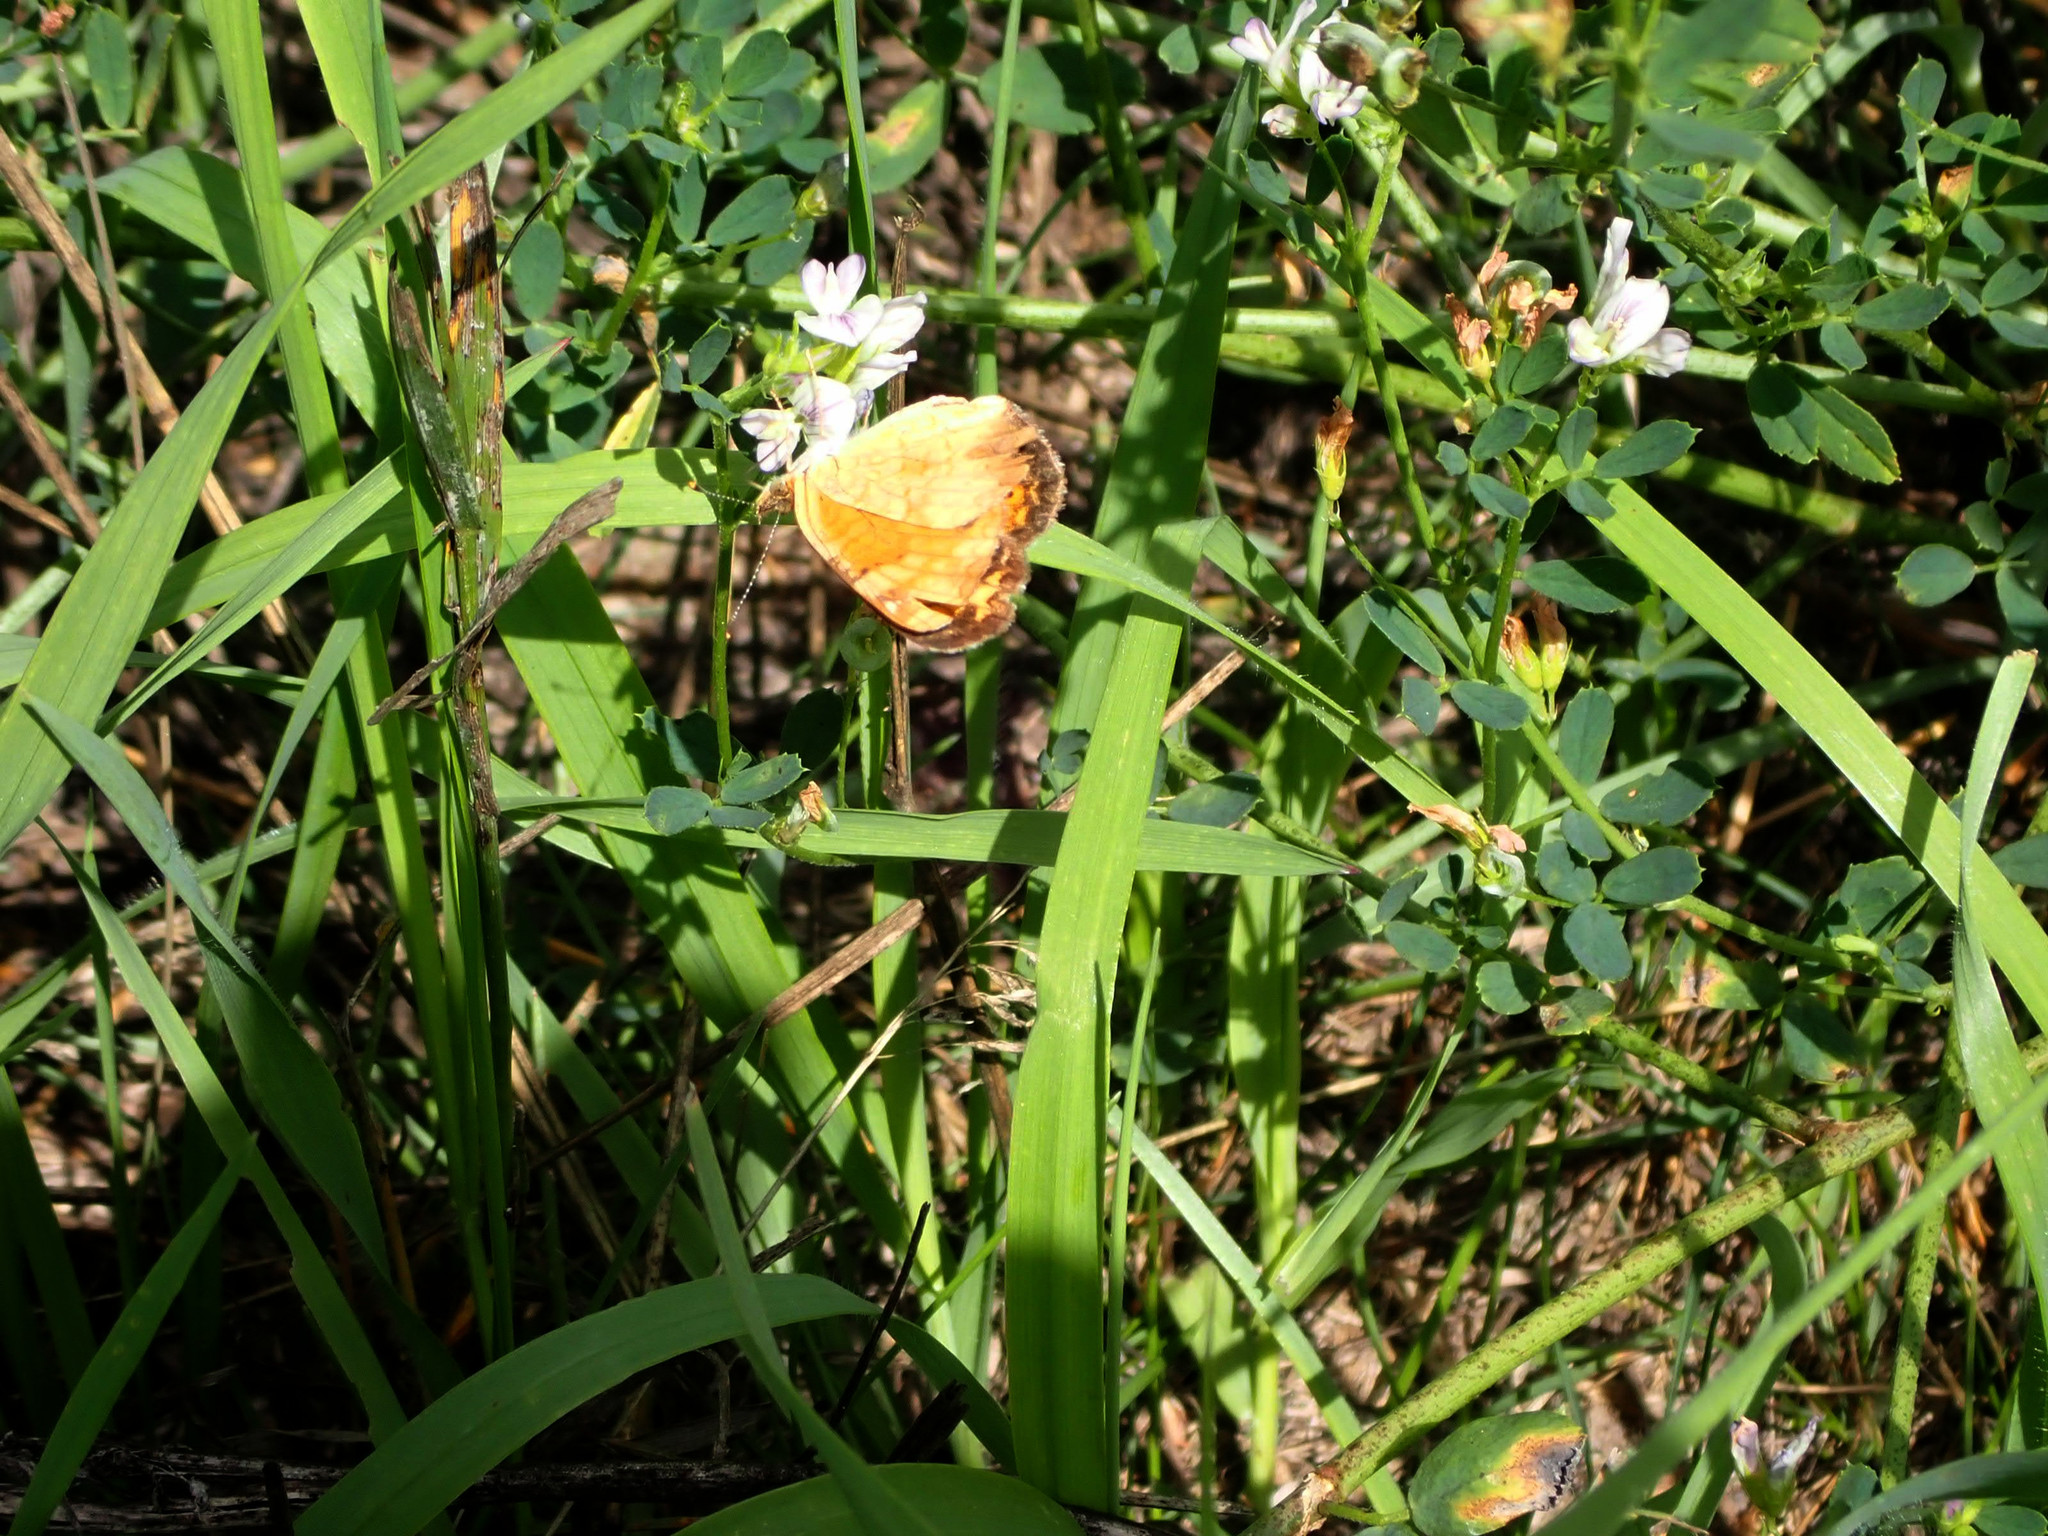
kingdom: Animalia
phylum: Arthropoda
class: Insecta
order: Lepidoptera
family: Nymphalidae
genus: Phyciodes
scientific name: Phyciodes tharos
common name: Pearl crescent
